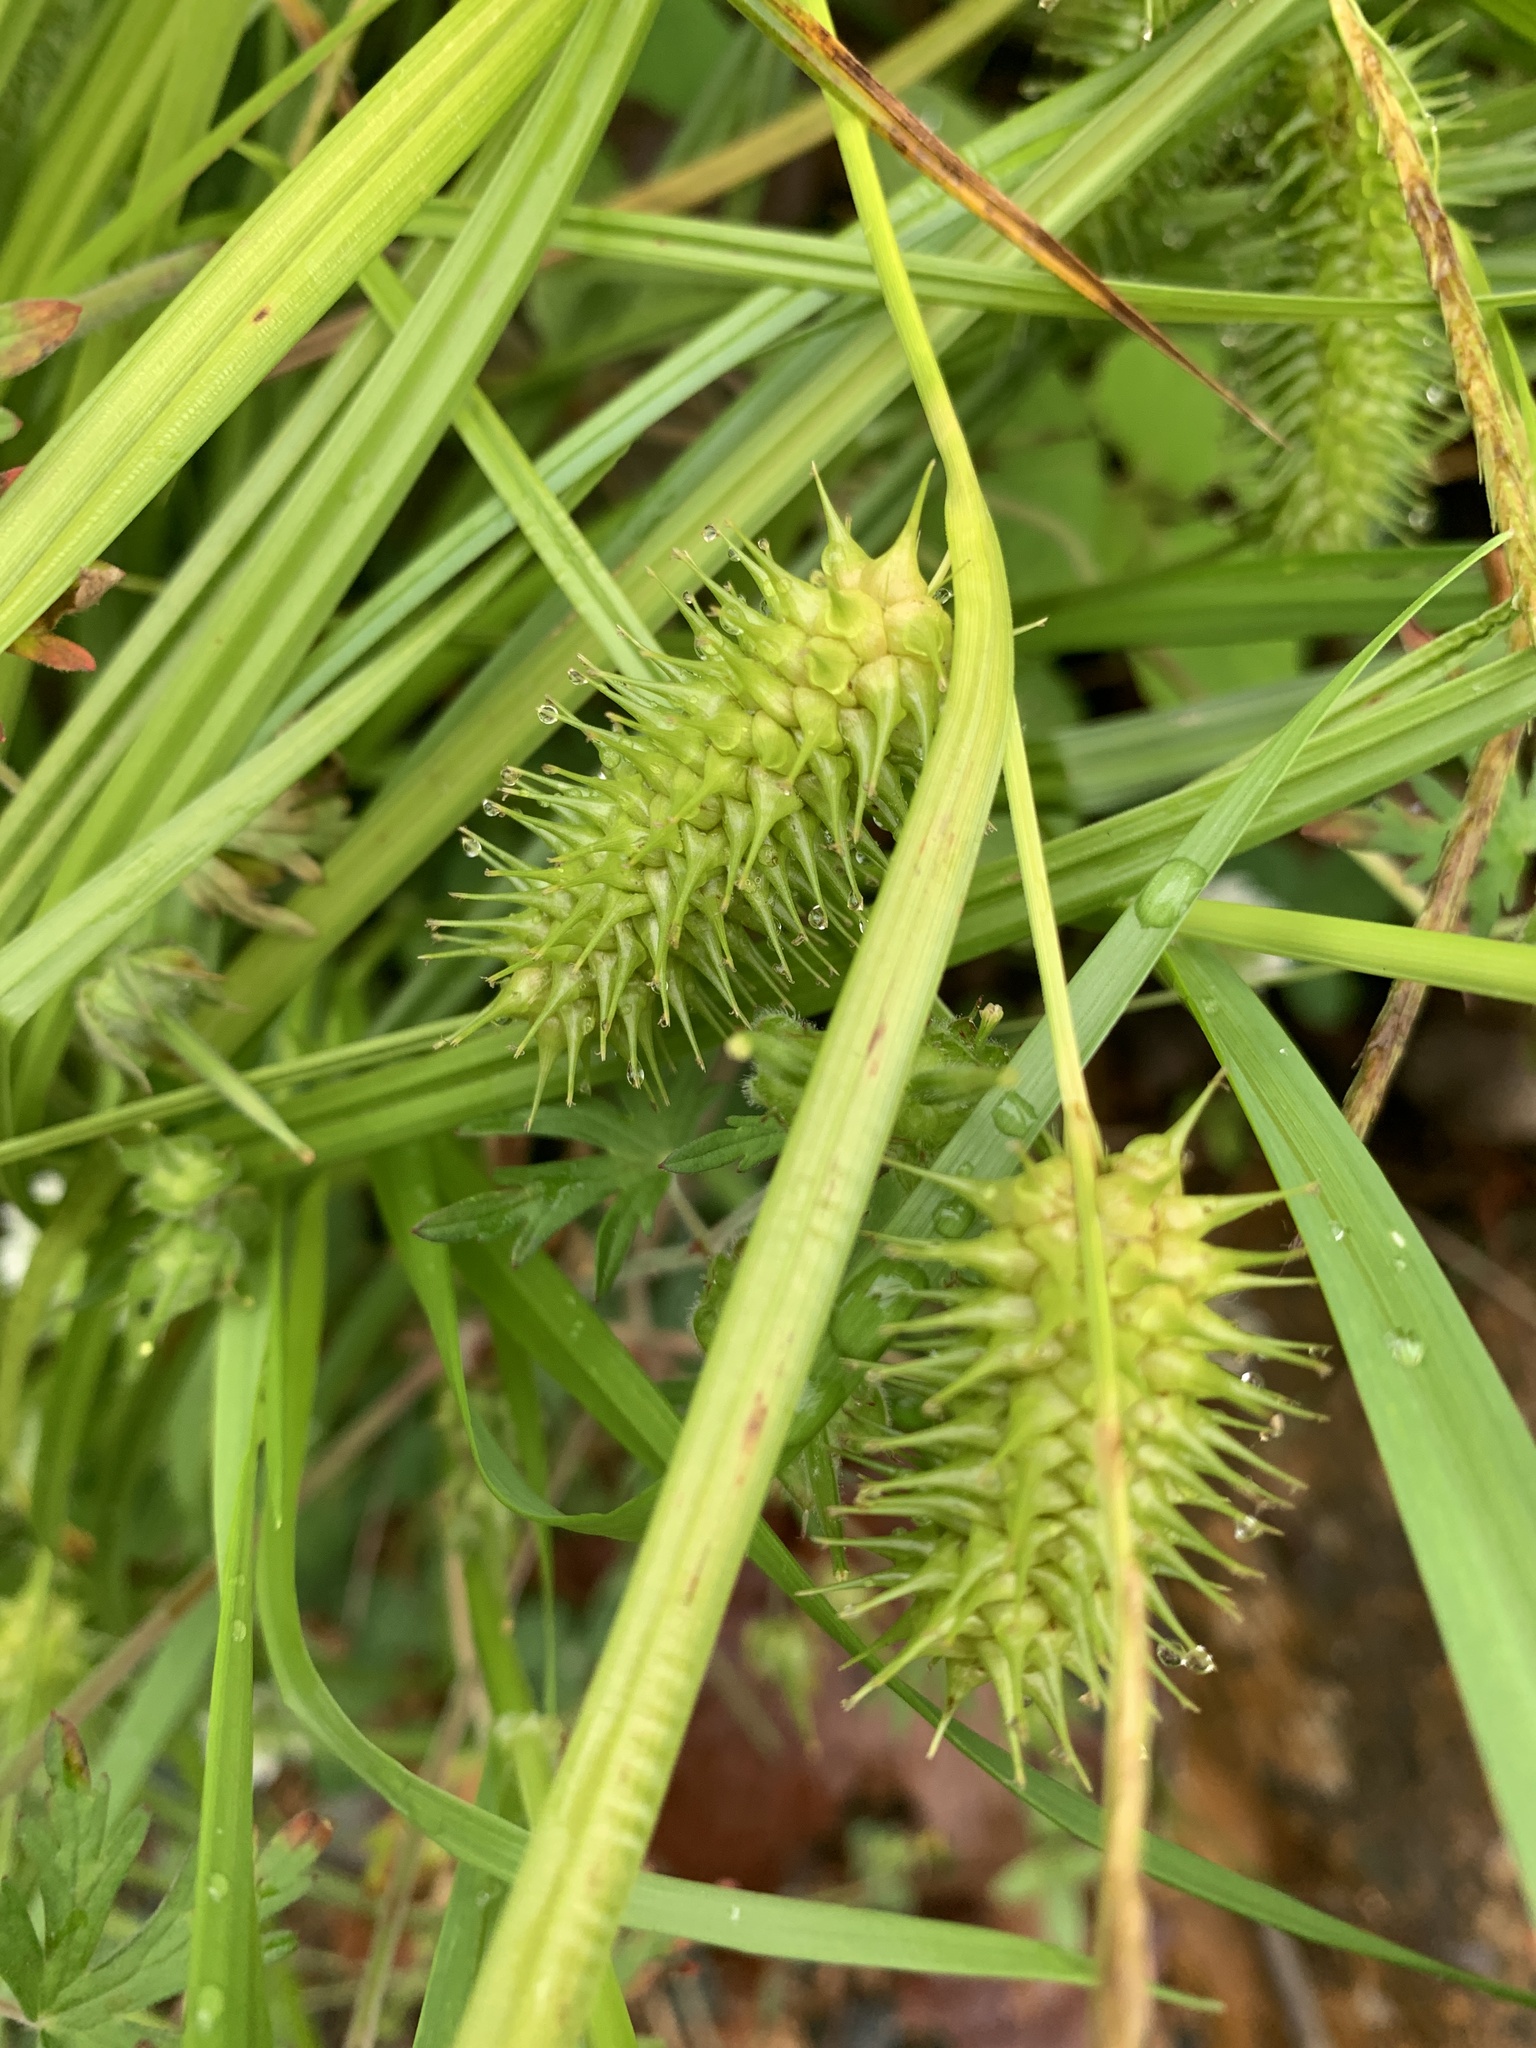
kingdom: Plantae
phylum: Tracheophyta
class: Liliopsida
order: Poales
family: Cyperaceae
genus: Carex
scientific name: Carex lurida
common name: Sallow sedge
